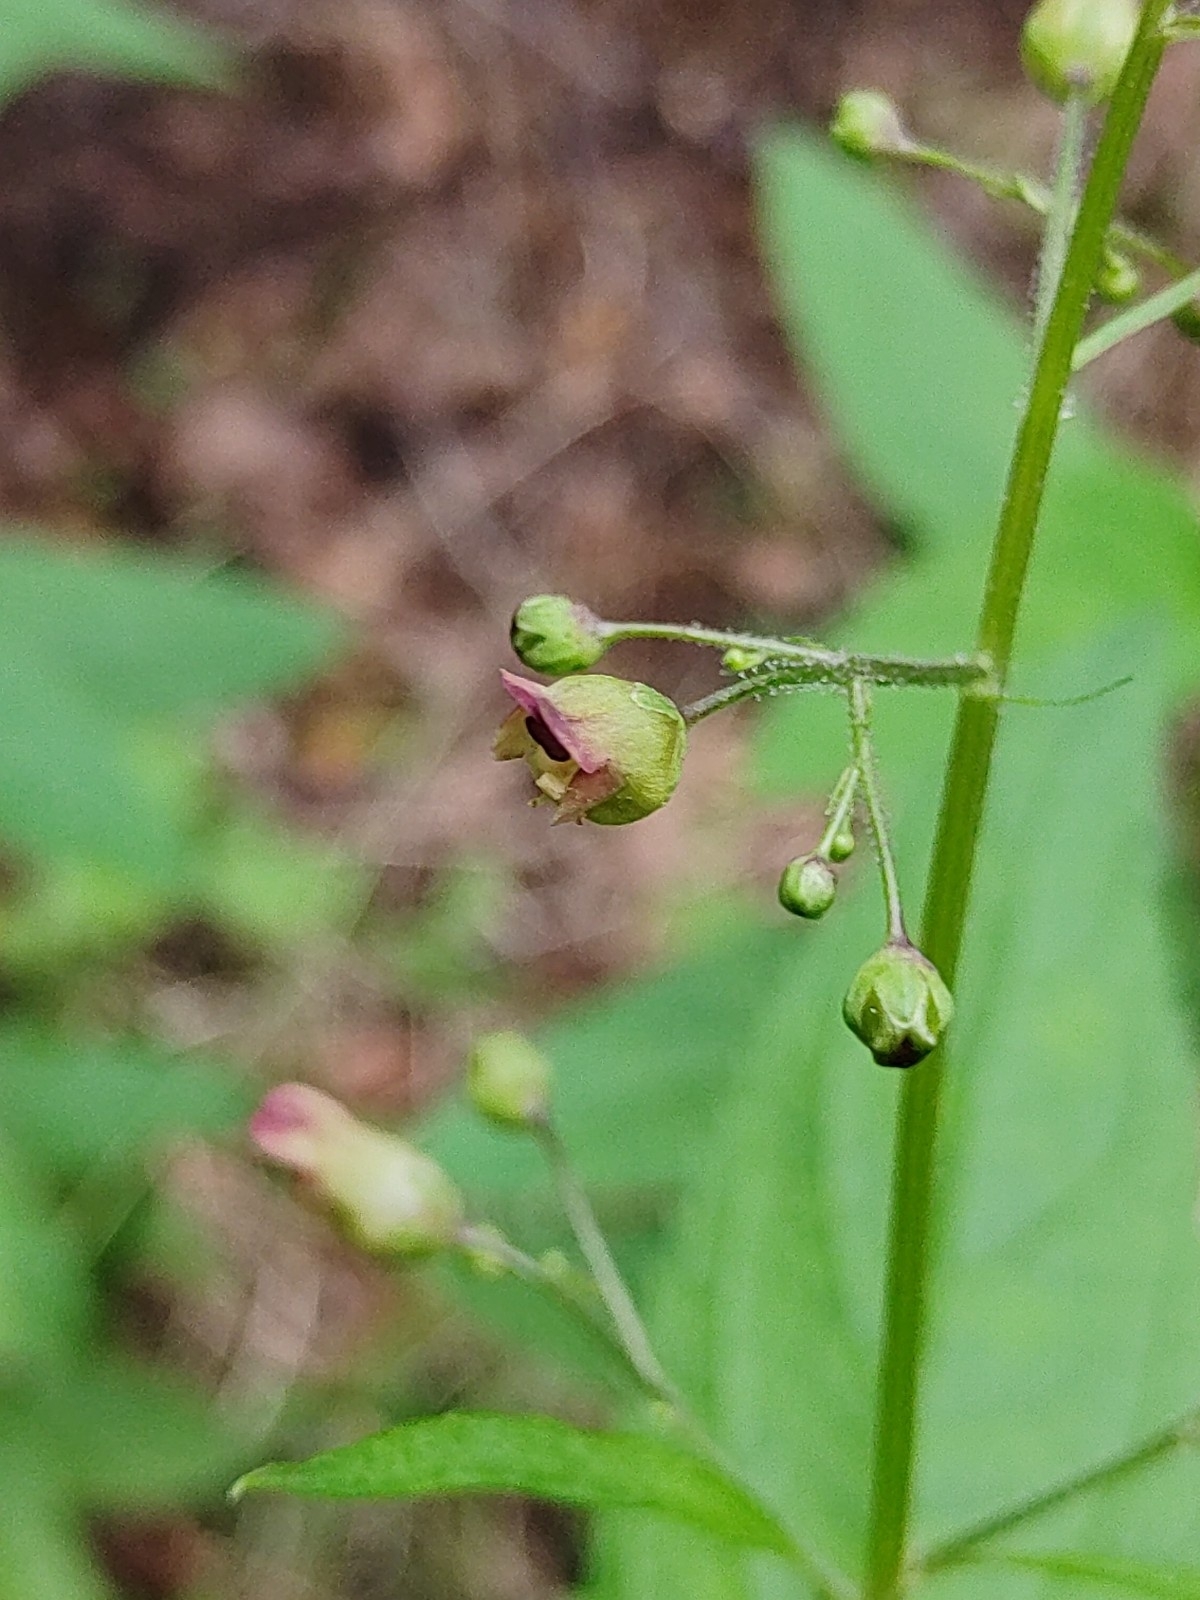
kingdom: Plantae
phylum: Tracheophyta
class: Magnoliopsida
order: Lamiales
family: Scrophulariaceae
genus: Scrophularia
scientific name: Scrophularia nodosa
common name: Common figwort
